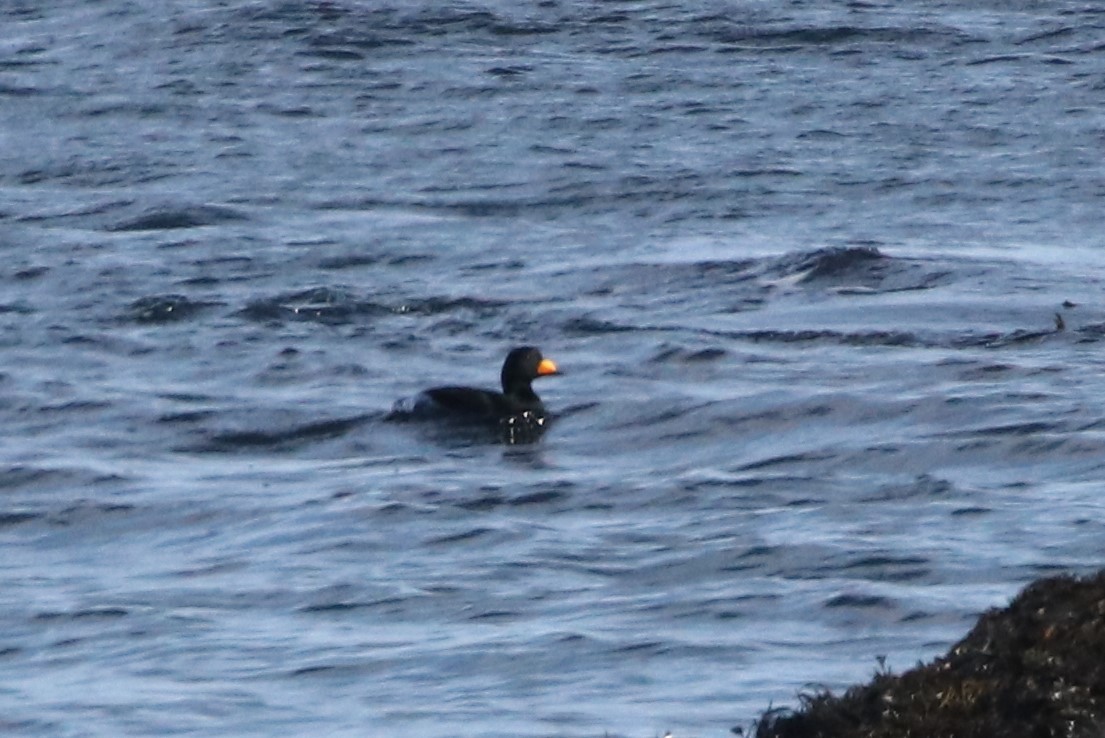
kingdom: Animalia
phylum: Chordata
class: Aves
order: Anseriformes
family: Anatidae
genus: Melanitta
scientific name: Melanitta americana
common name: Black scoter
